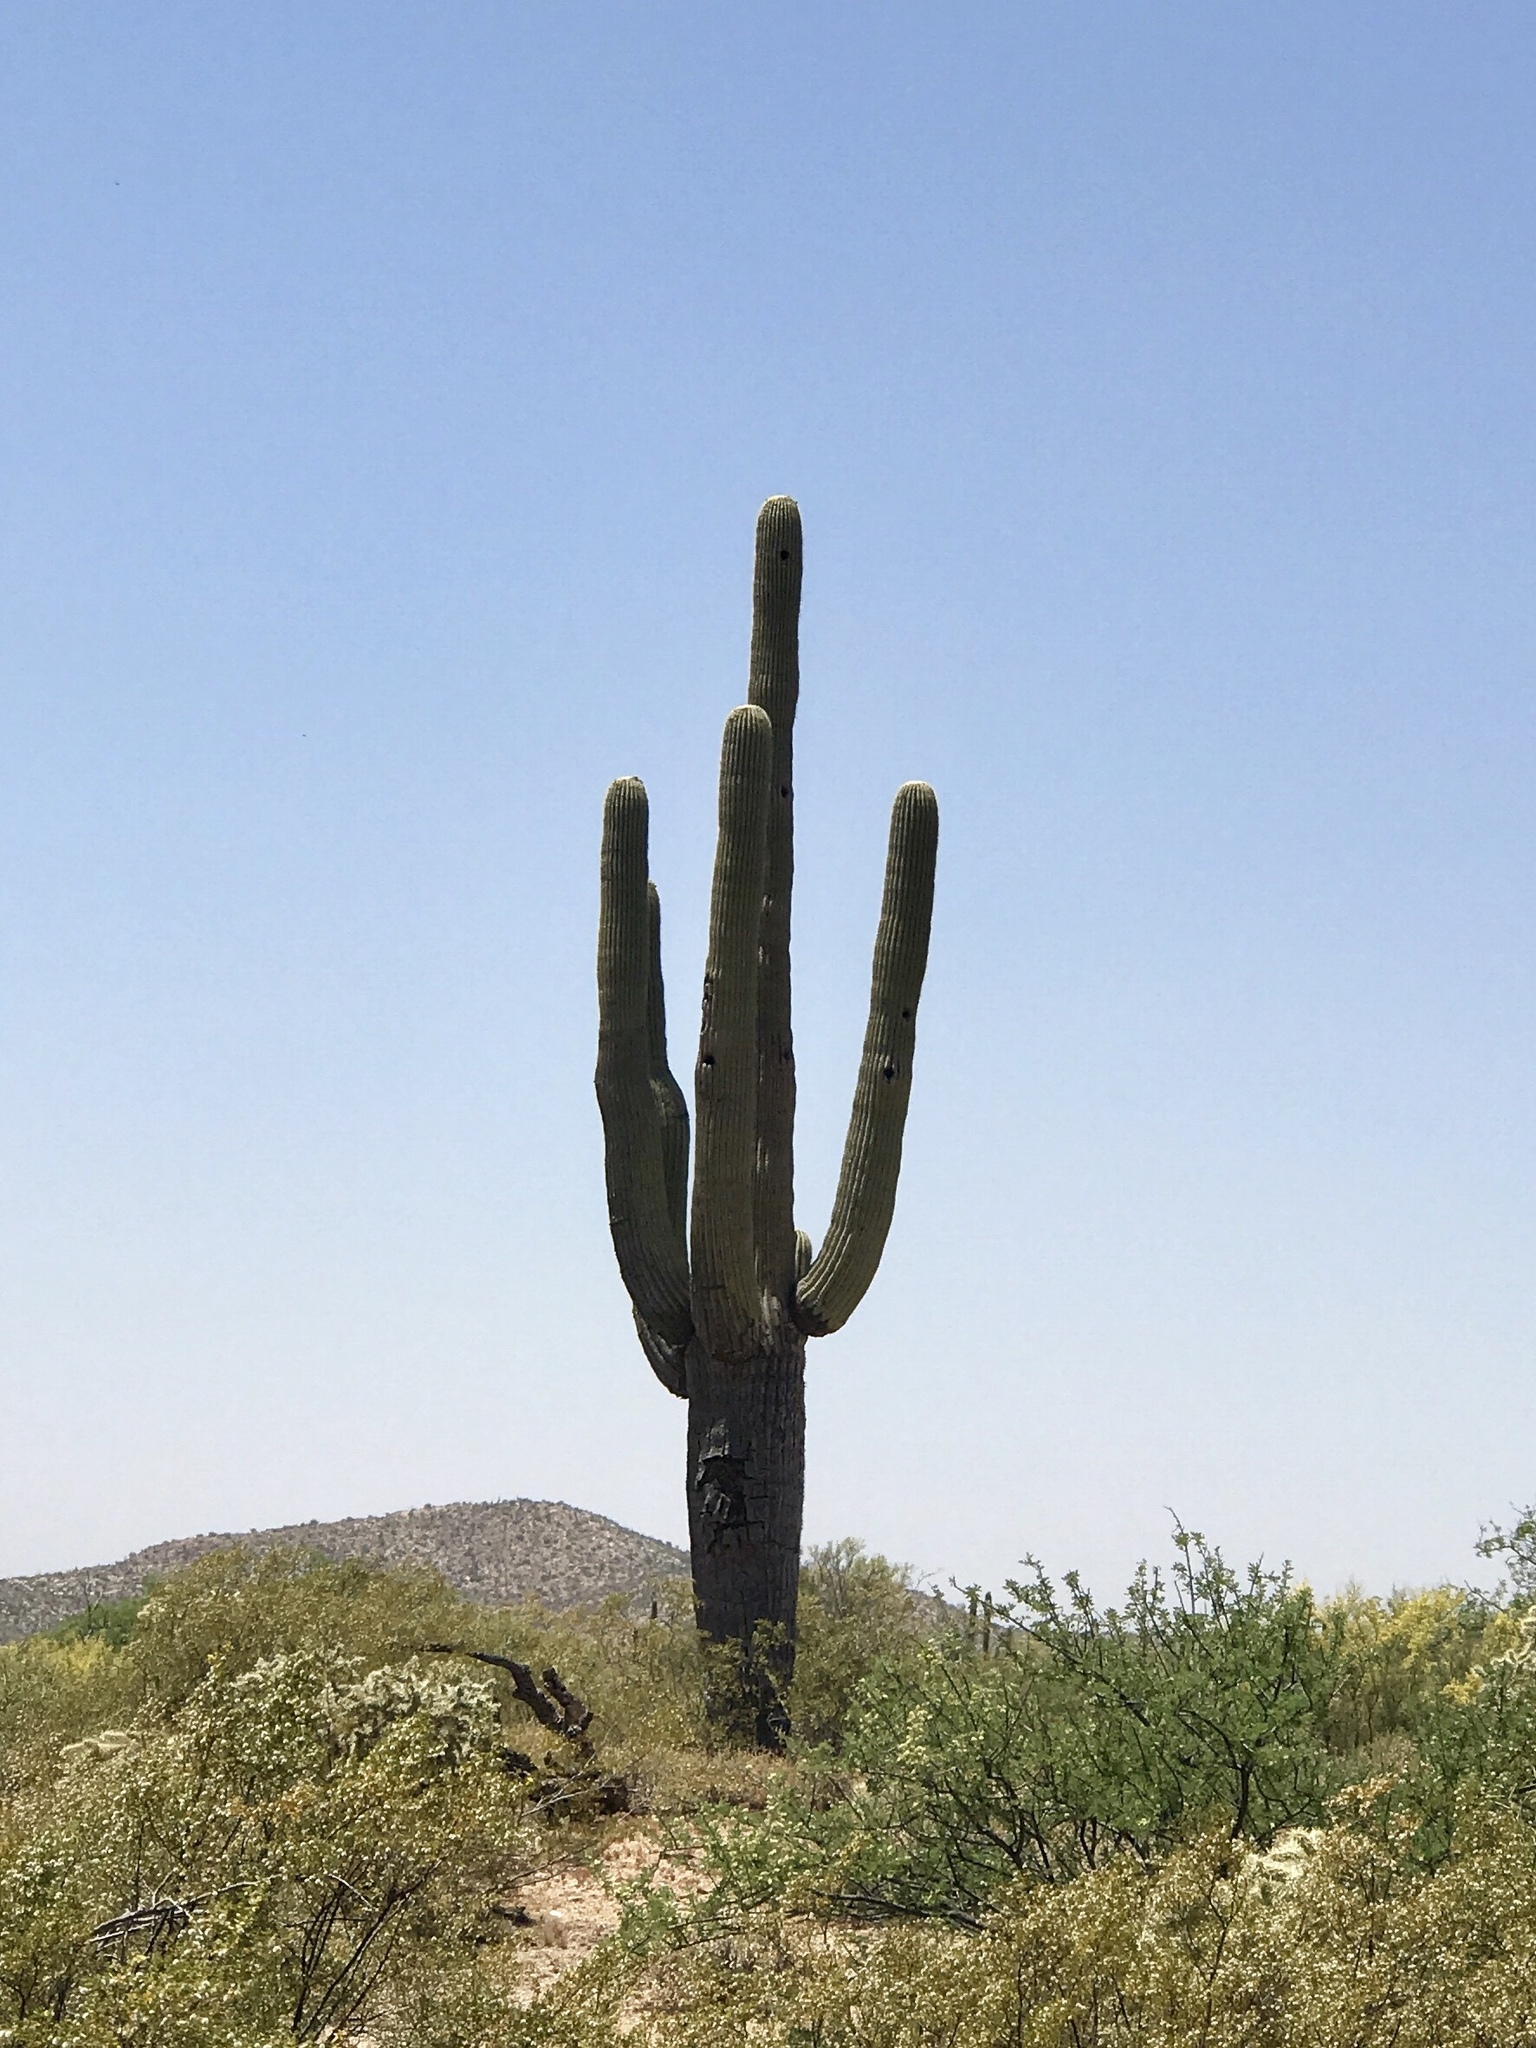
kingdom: Plantae
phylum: Tracheophyta
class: Magnoliopsida
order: Caryophyllales
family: Cactaceae
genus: Carnegiea
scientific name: Carnegiea gigantea
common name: Saguaro
